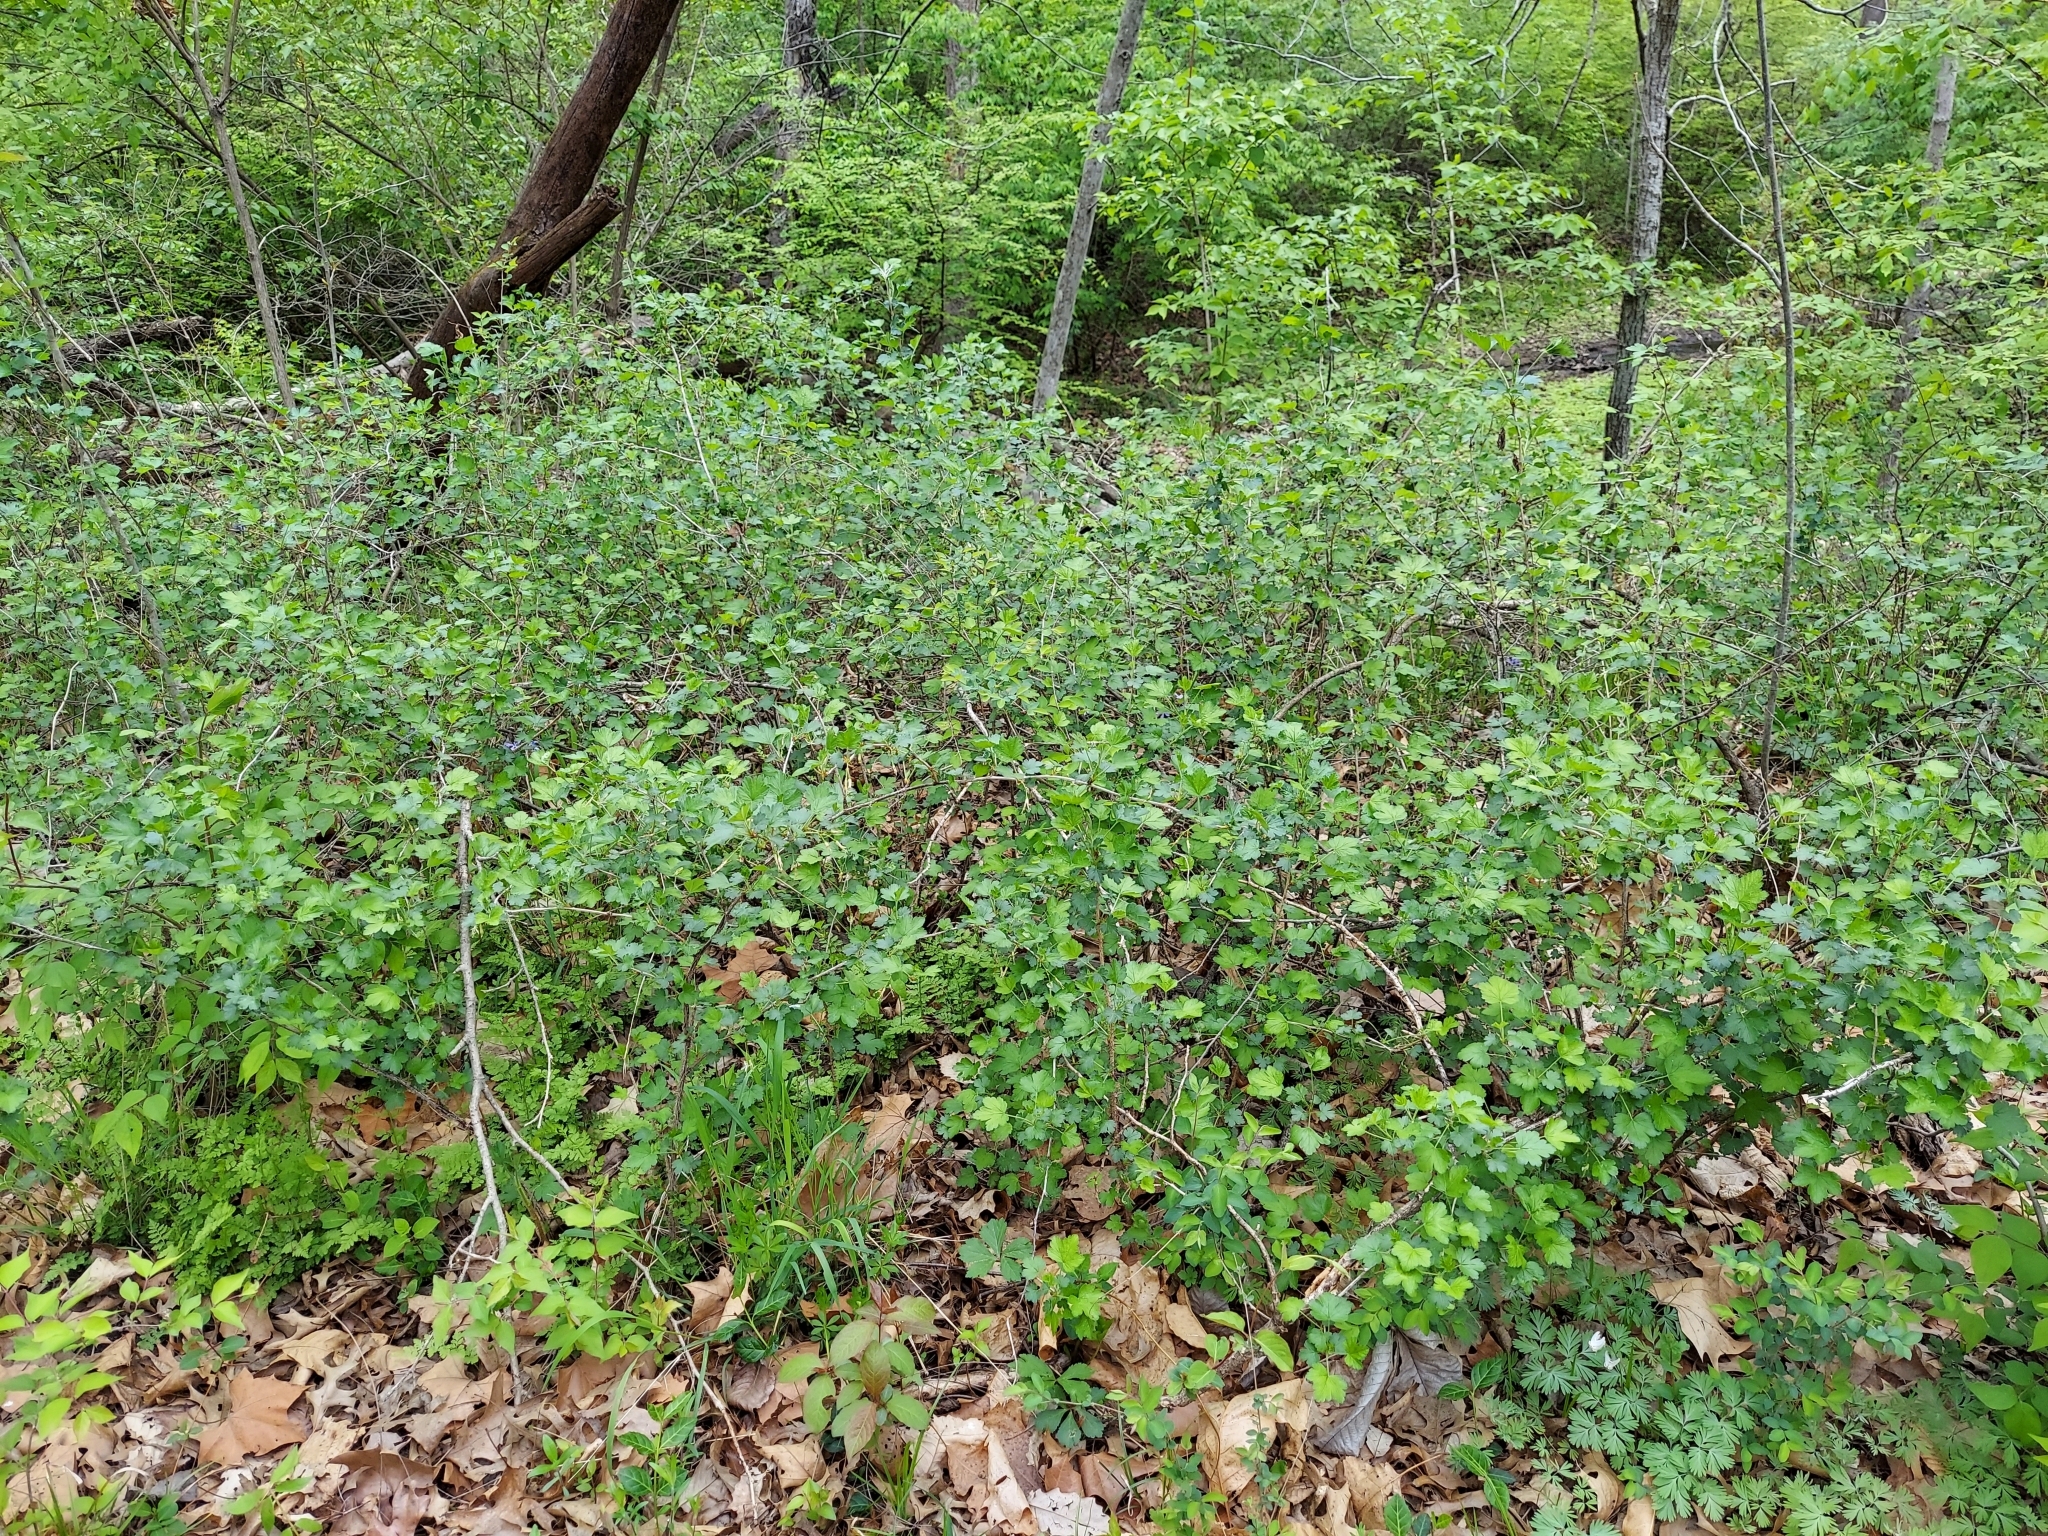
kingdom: Plantae
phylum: Tracheophyta
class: Magnoliopsida
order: Saxifragales
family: Grossulariaceae
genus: Ribes
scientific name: Ribes missouriense
